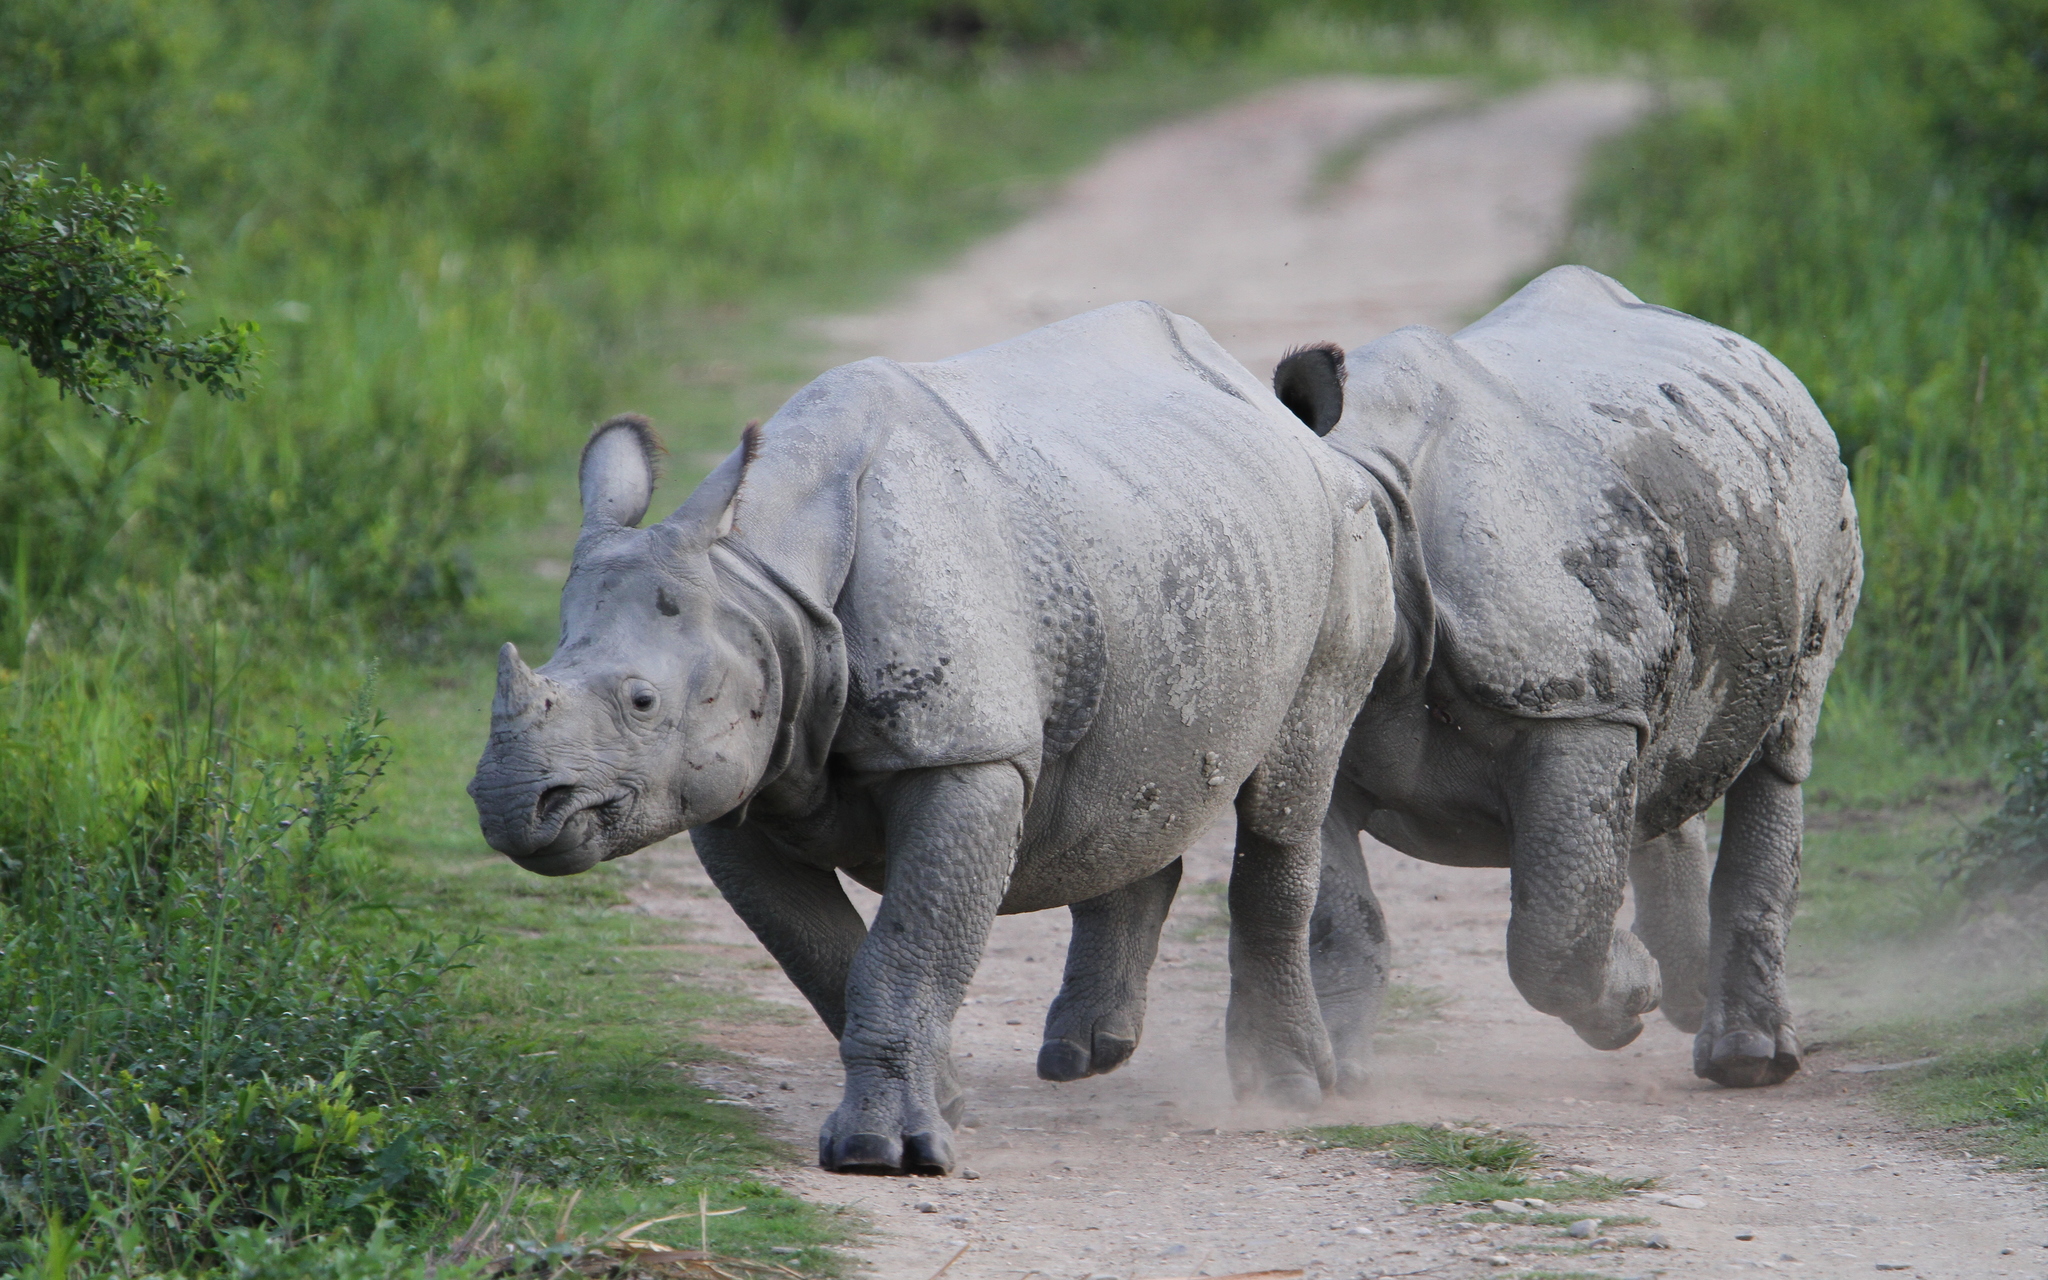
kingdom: Animalia
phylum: Chordata
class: Mammalia
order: Perissodactyla
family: Rhinocerotidae
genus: Rhinoceros
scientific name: Rhinoceros unicornis
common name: Indian rhinoceros
